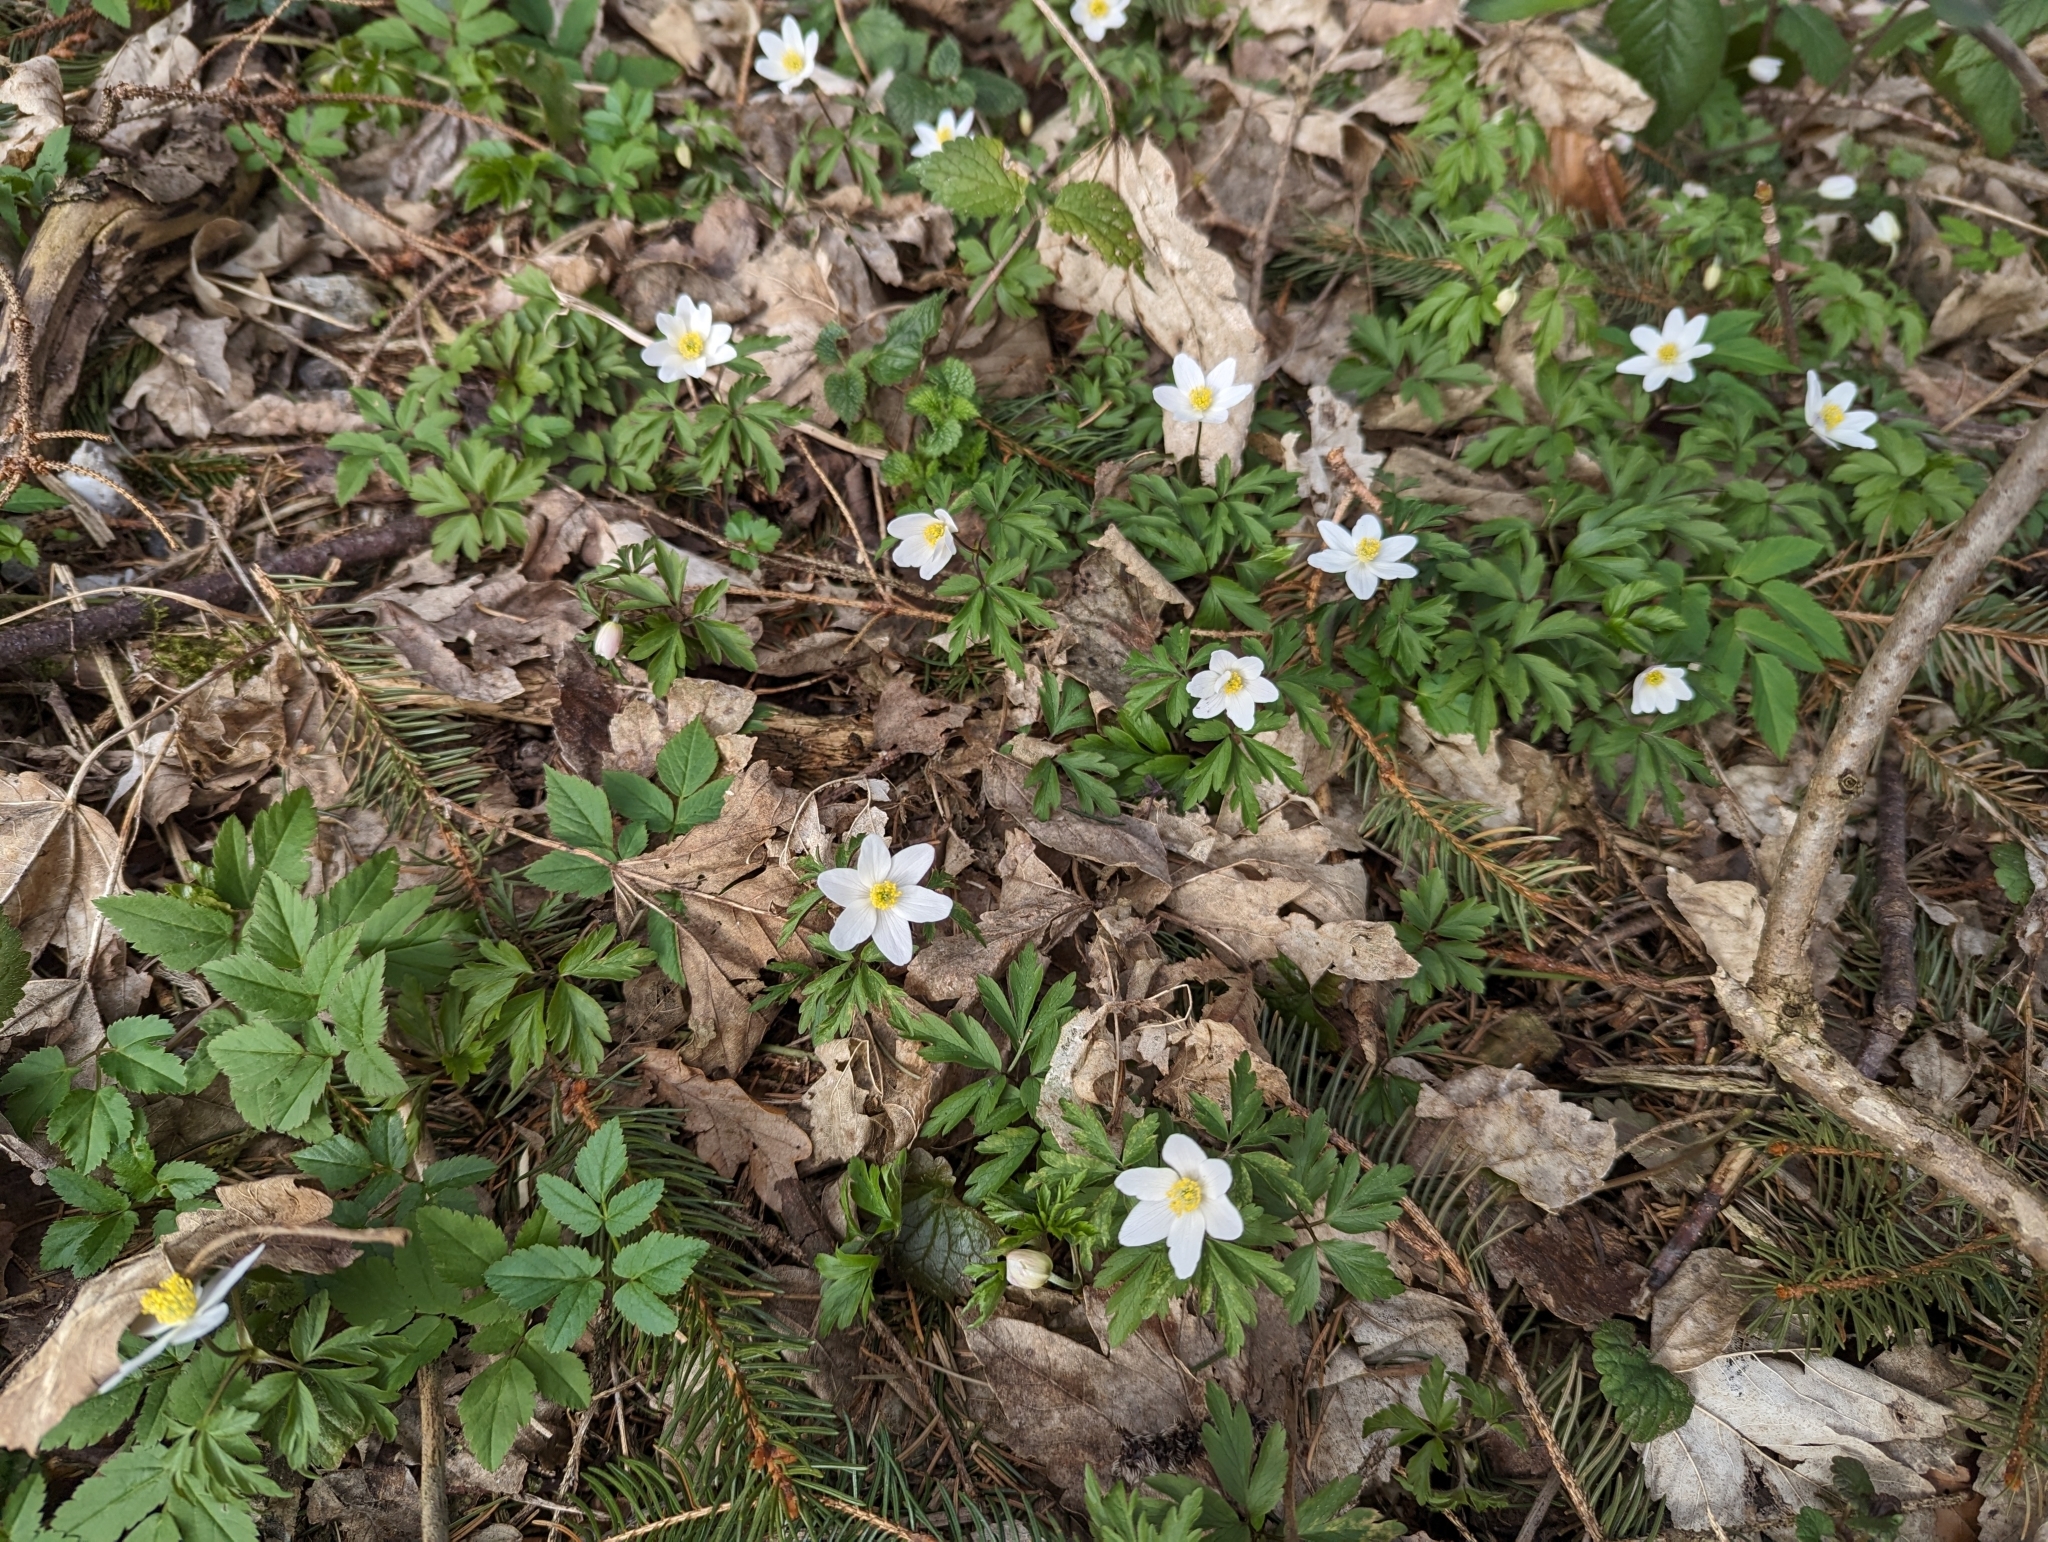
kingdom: Plantae
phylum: Tracheophyta
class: Magnoliopsida
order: Ranunculales
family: Ranunculaceae
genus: Anemone
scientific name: Anemone nemorosa
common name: Wood anemone
